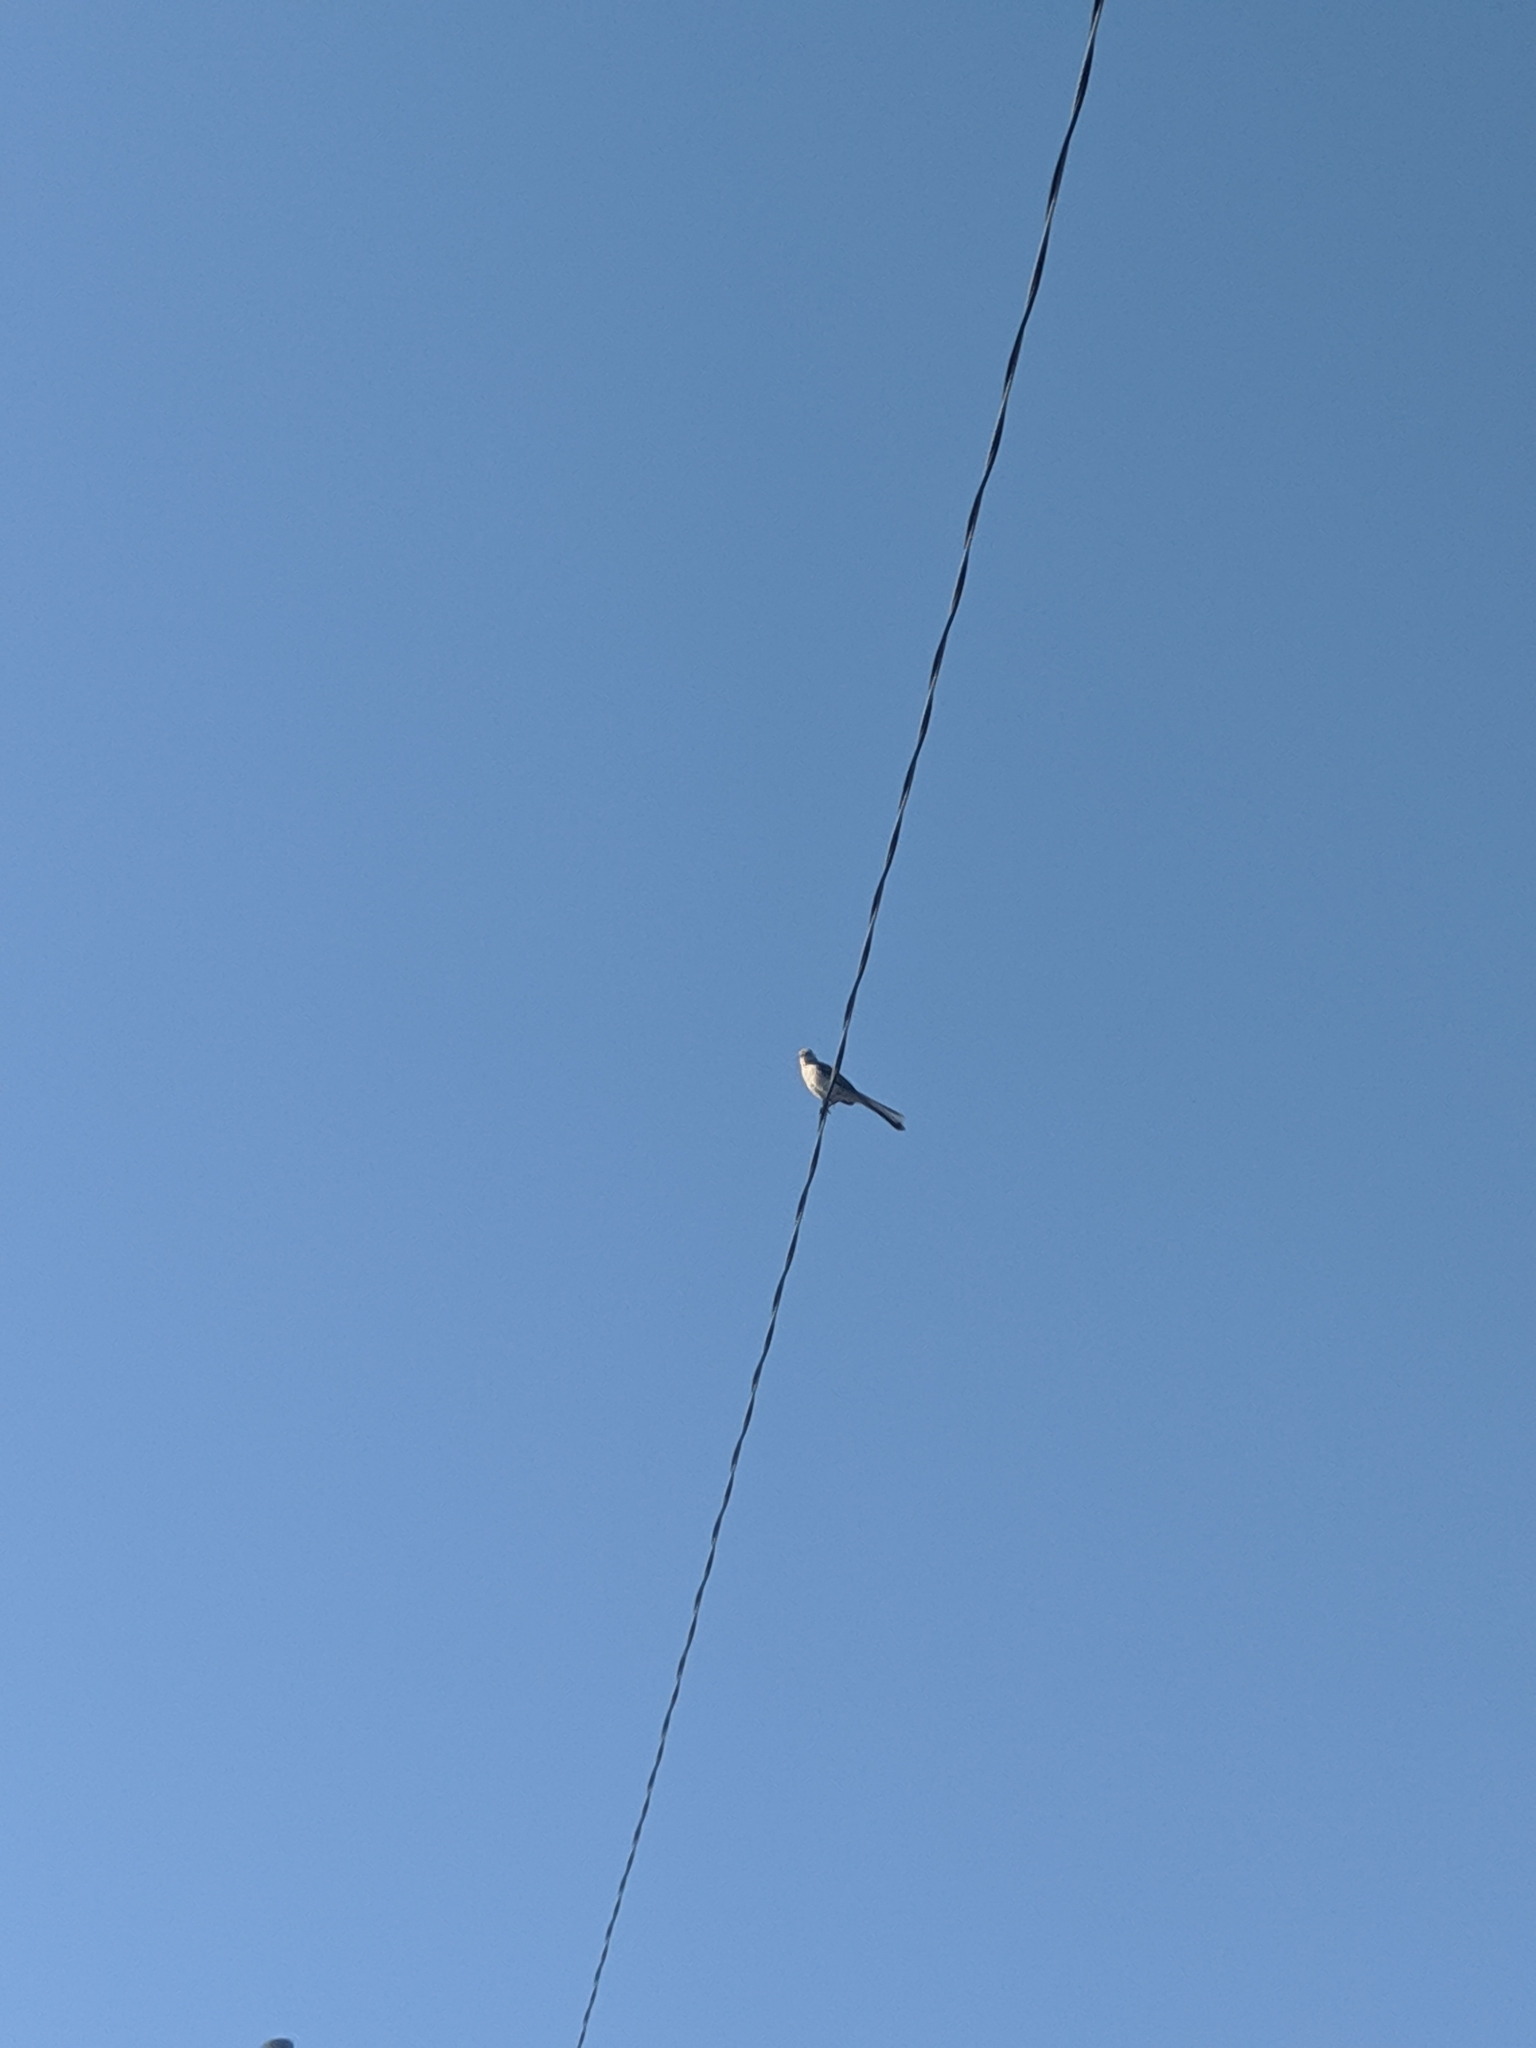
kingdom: Animalia
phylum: Chordata
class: Aves
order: Passeriformes
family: Mimidae
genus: Mimus
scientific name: Mimus polyglottos
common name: Northern mockingbird
